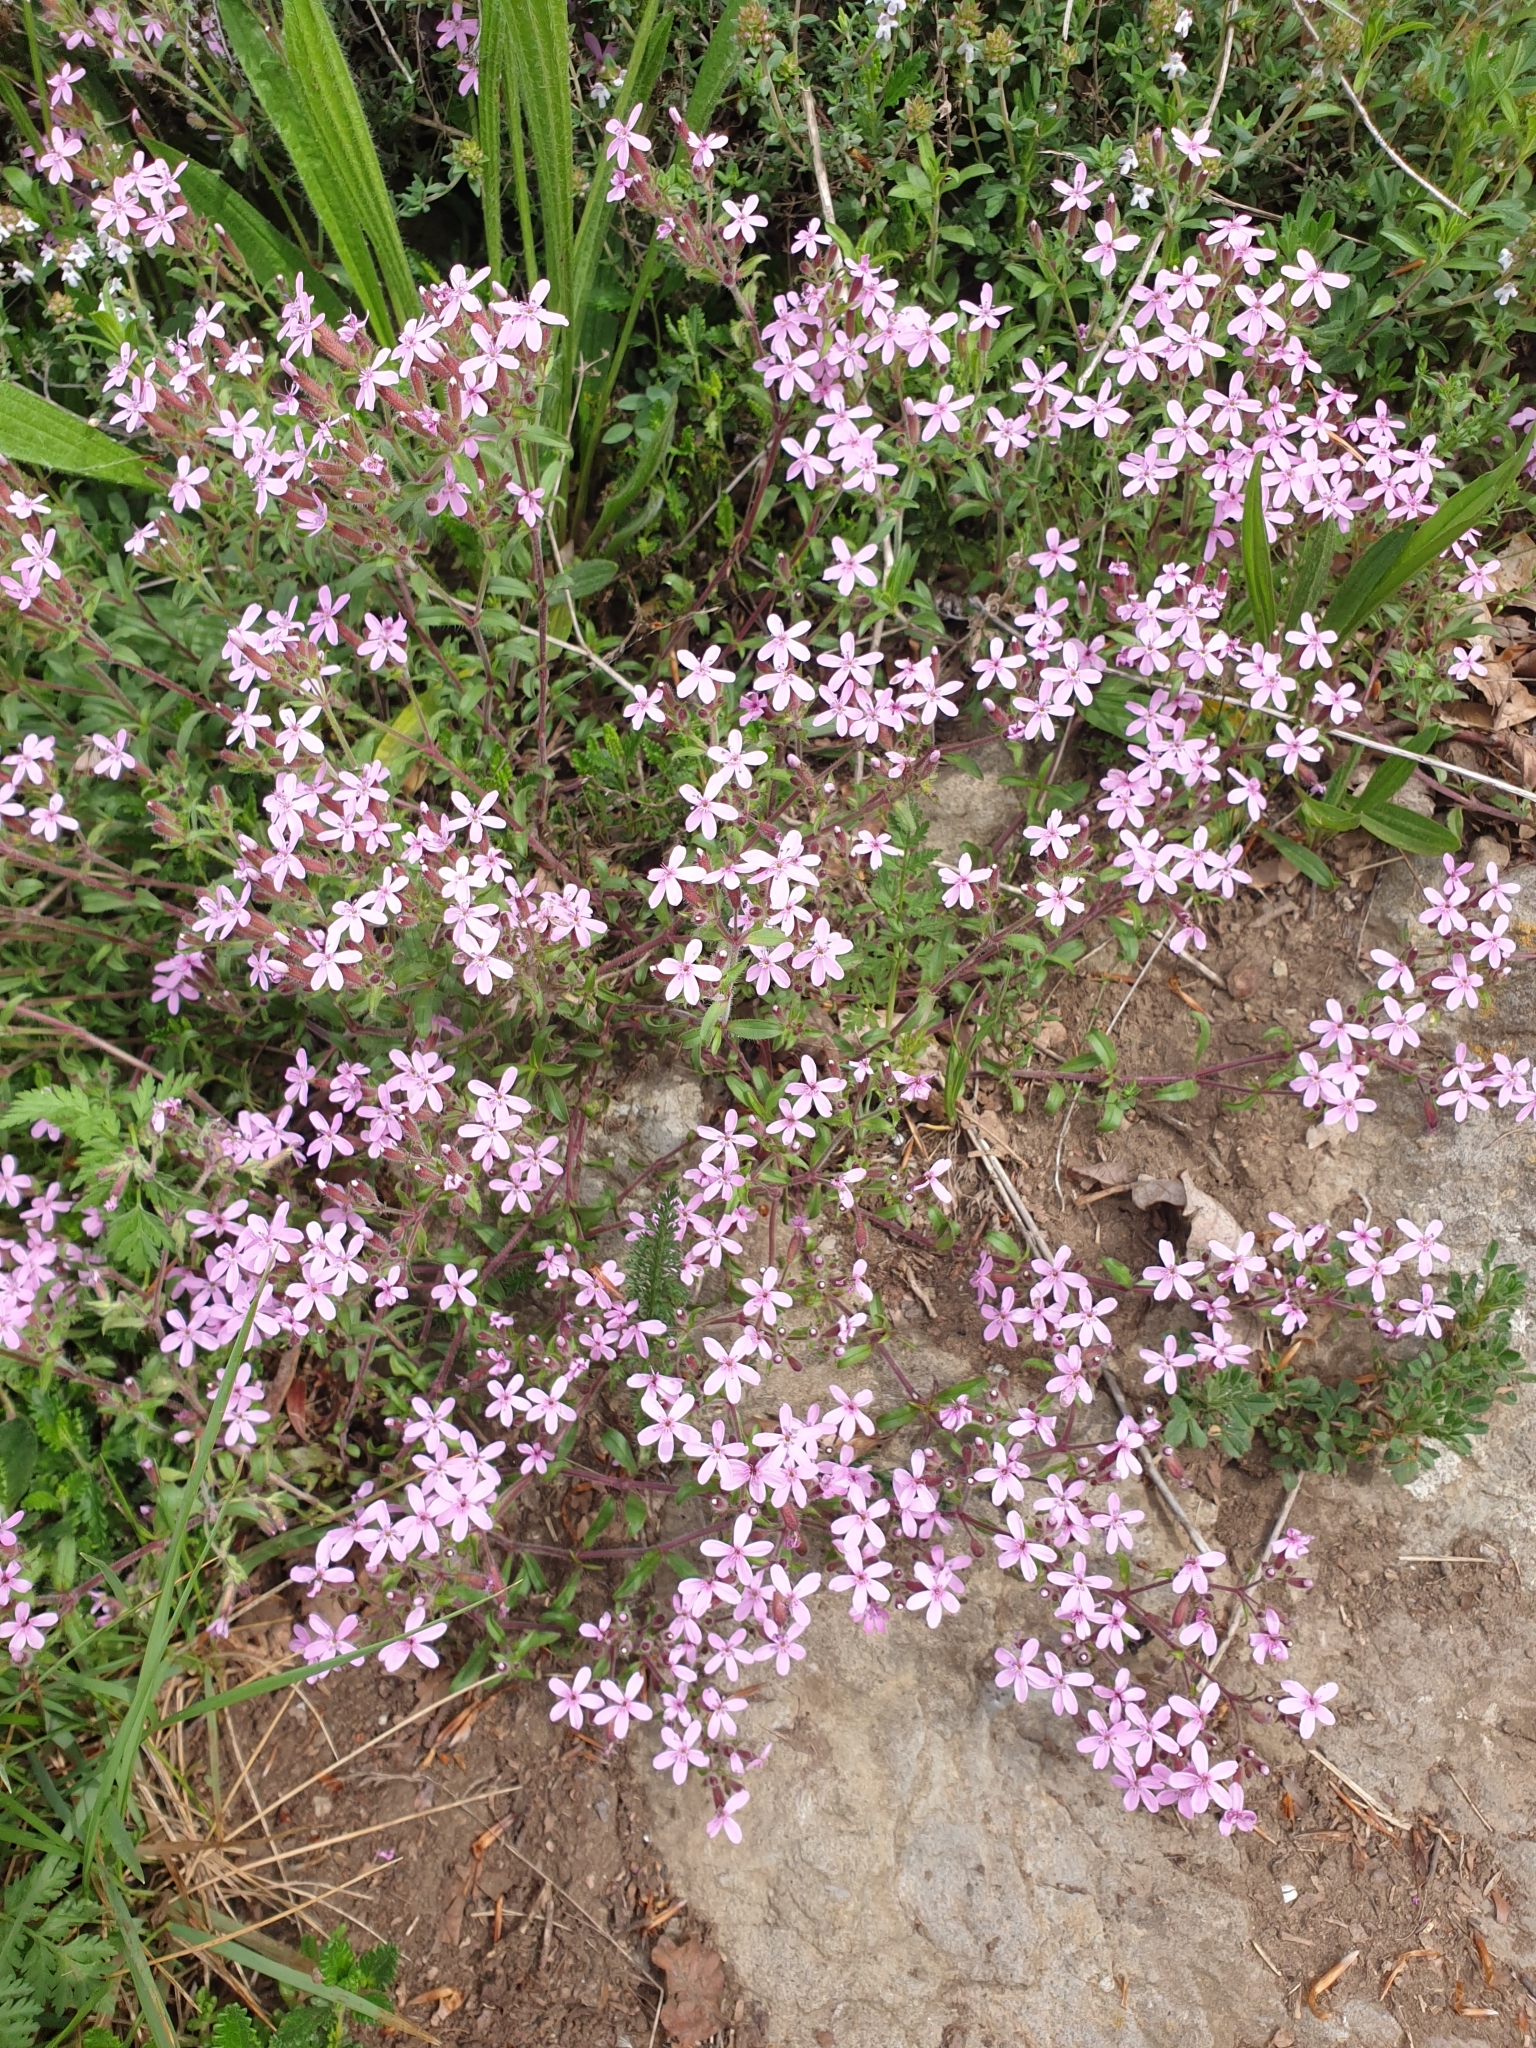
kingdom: Plantae
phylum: Tracheophyta
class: Magnoliopsida
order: Caryophyllales
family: Caryophyllaceae
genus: Saponaria
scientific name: Saponaria ocymoides
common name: Rock soapwort
